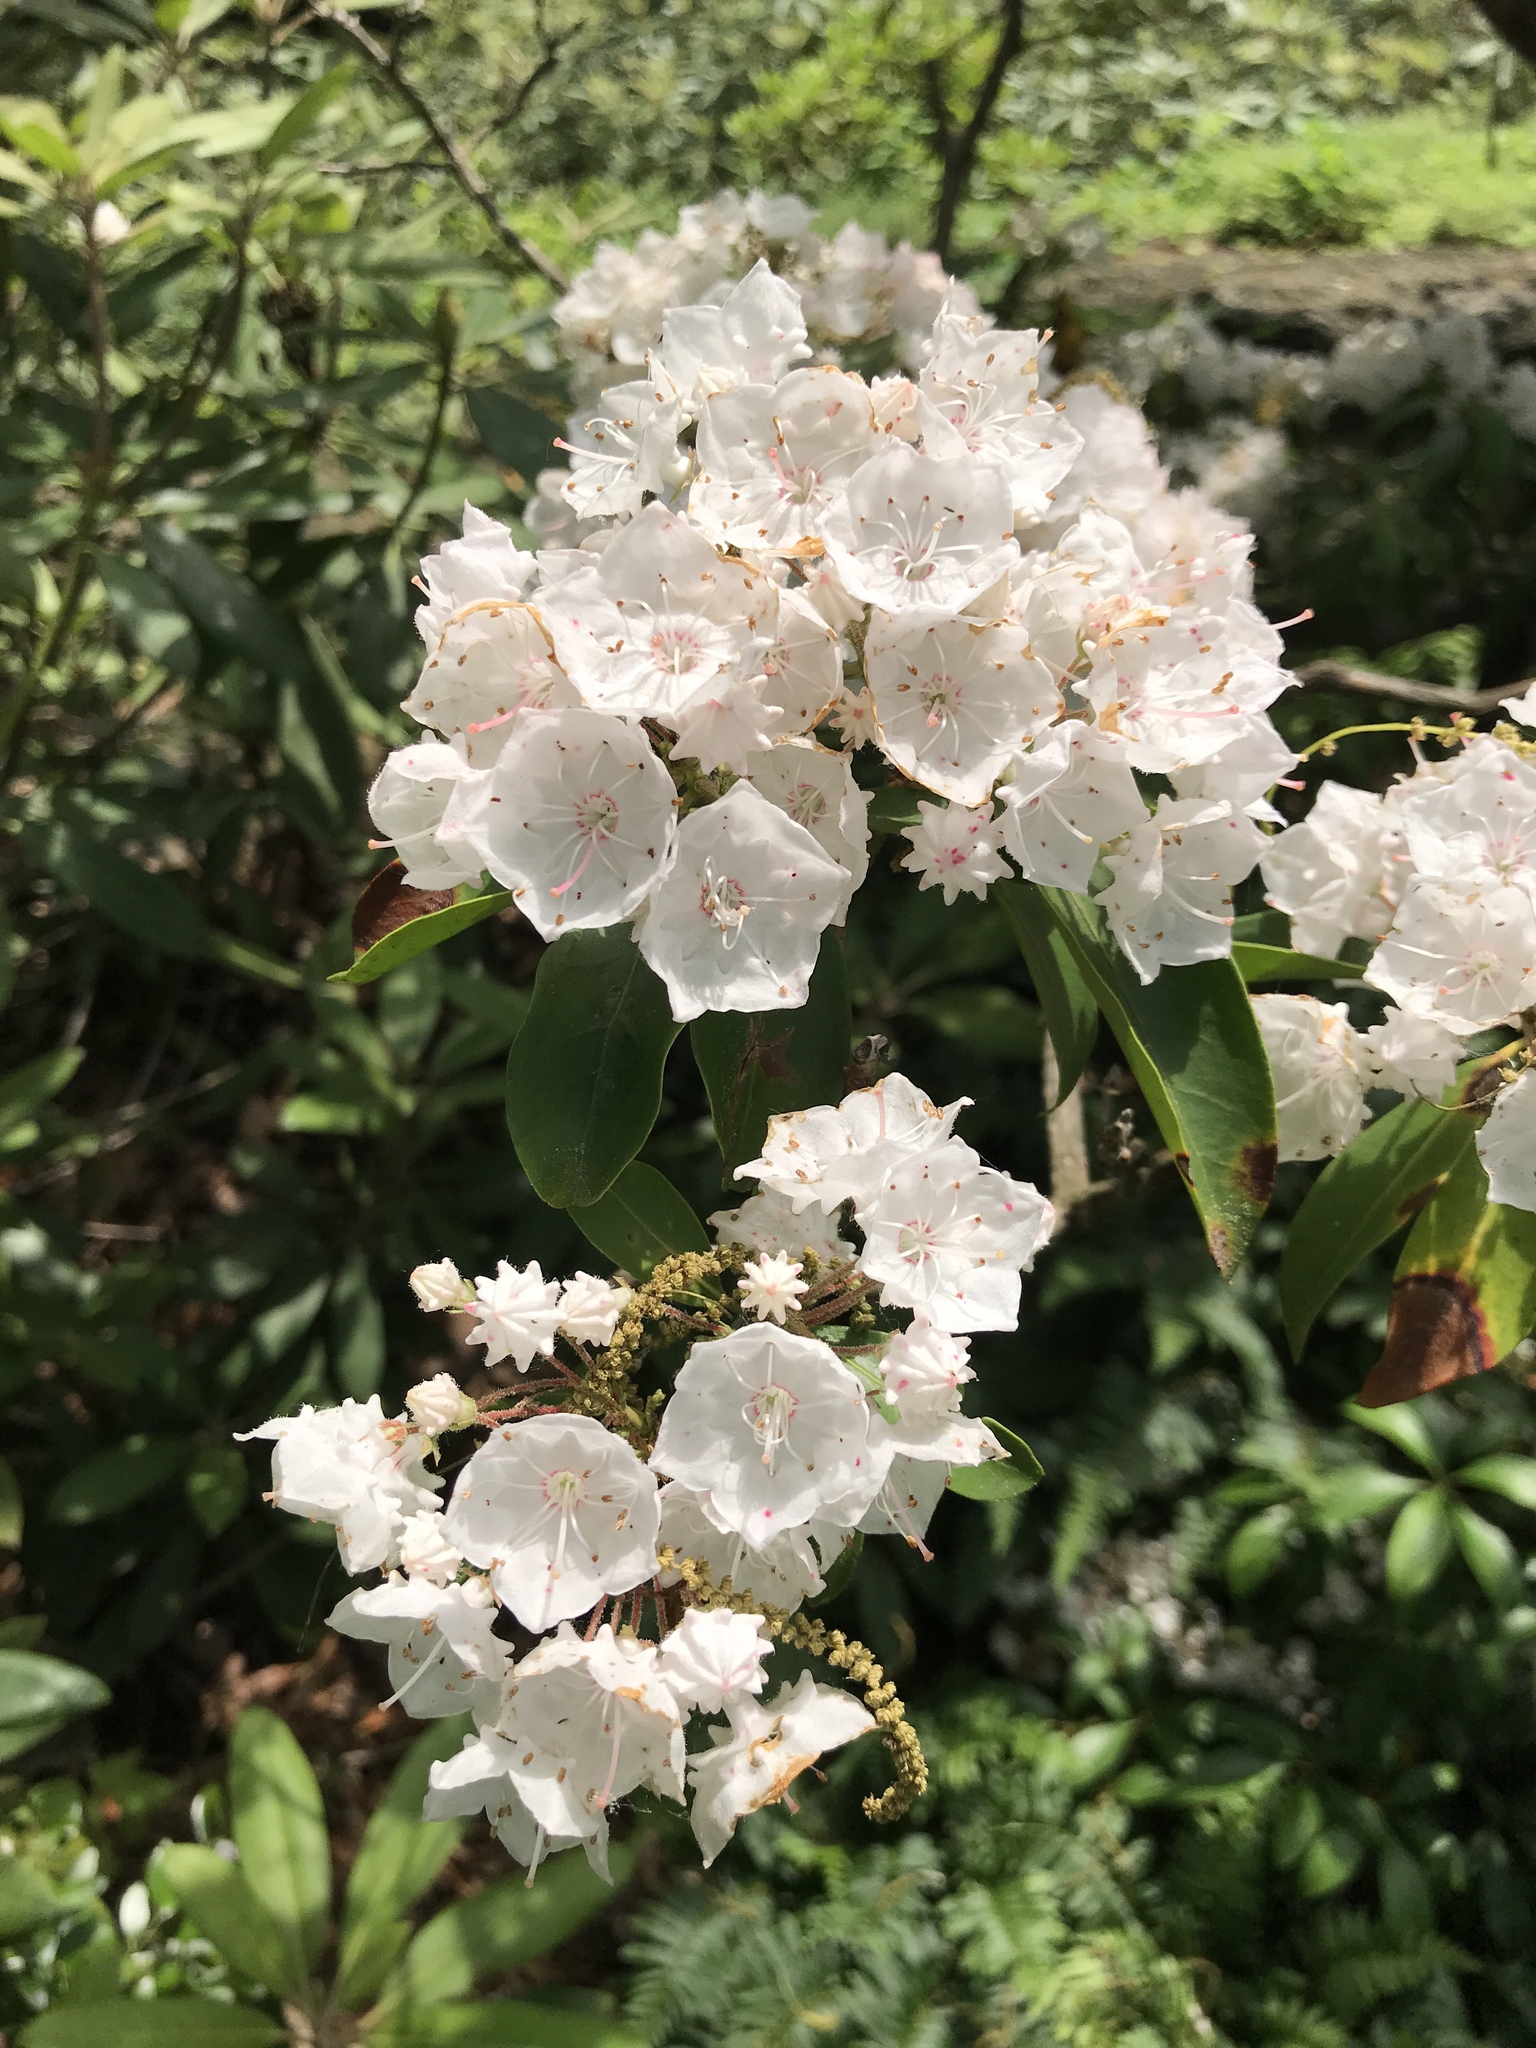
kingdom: Plantae
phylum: Tracheophyta
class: Magnoliopsida
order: Ericales
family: Ericaceae
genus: Kalmia
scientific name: Kalmia latifolia
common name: Mountain-laurel
